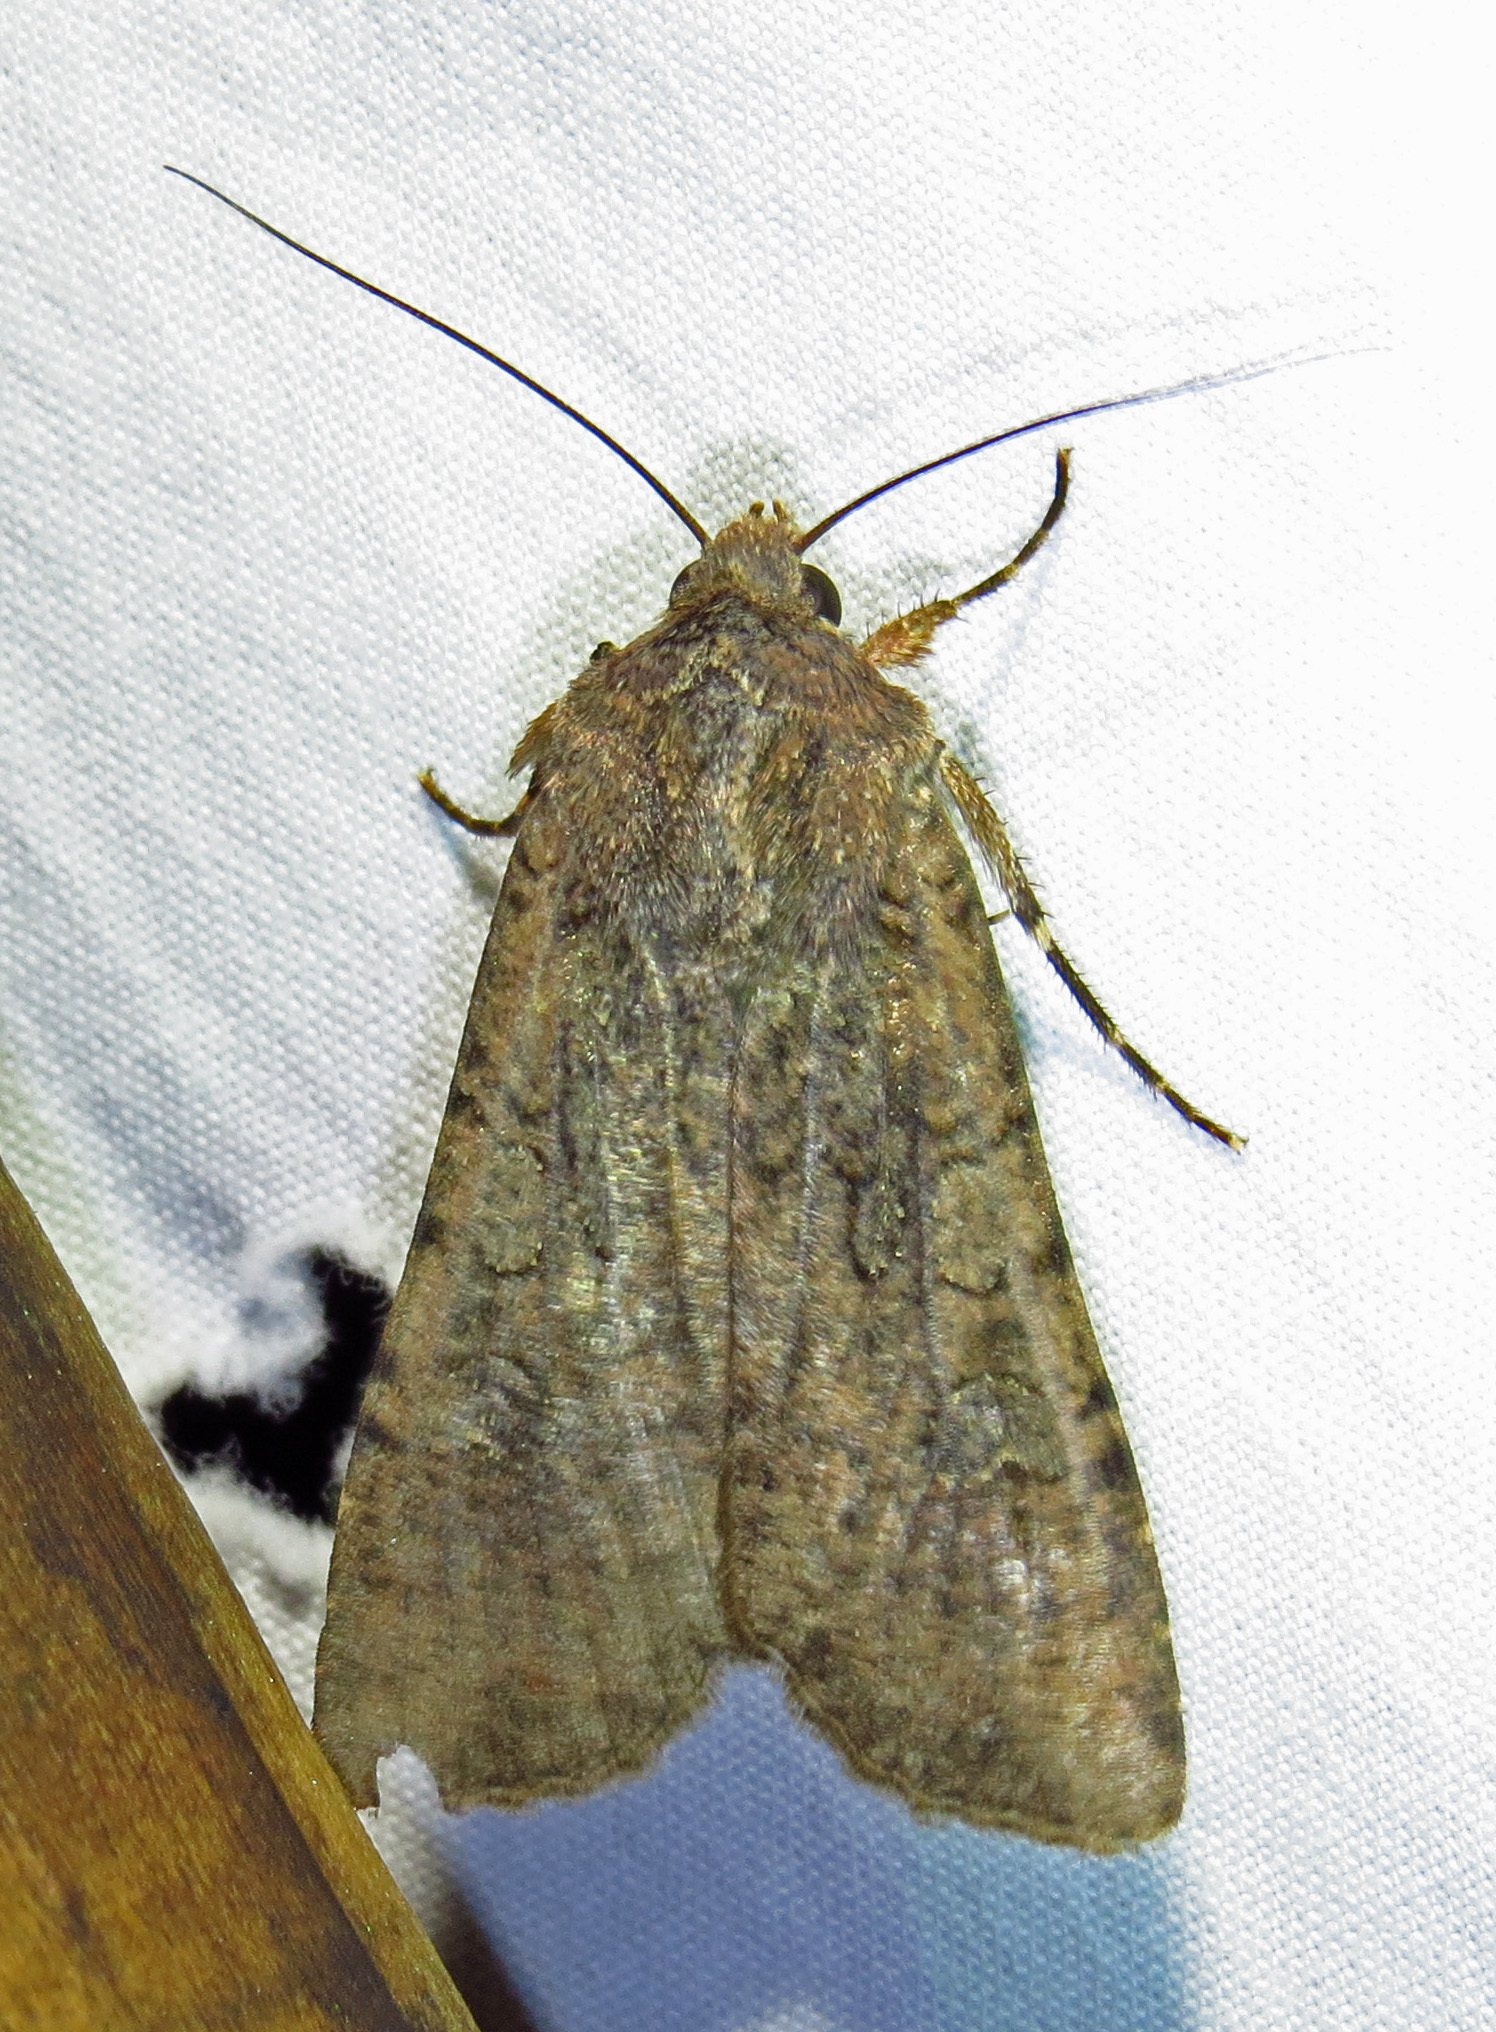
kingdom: Animalia
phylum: Arthropoda
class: Insecta
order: Lepidoptera
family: Noctuidae
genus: Peridroma
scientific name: Peridroma saucia
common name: Pearly underwing
